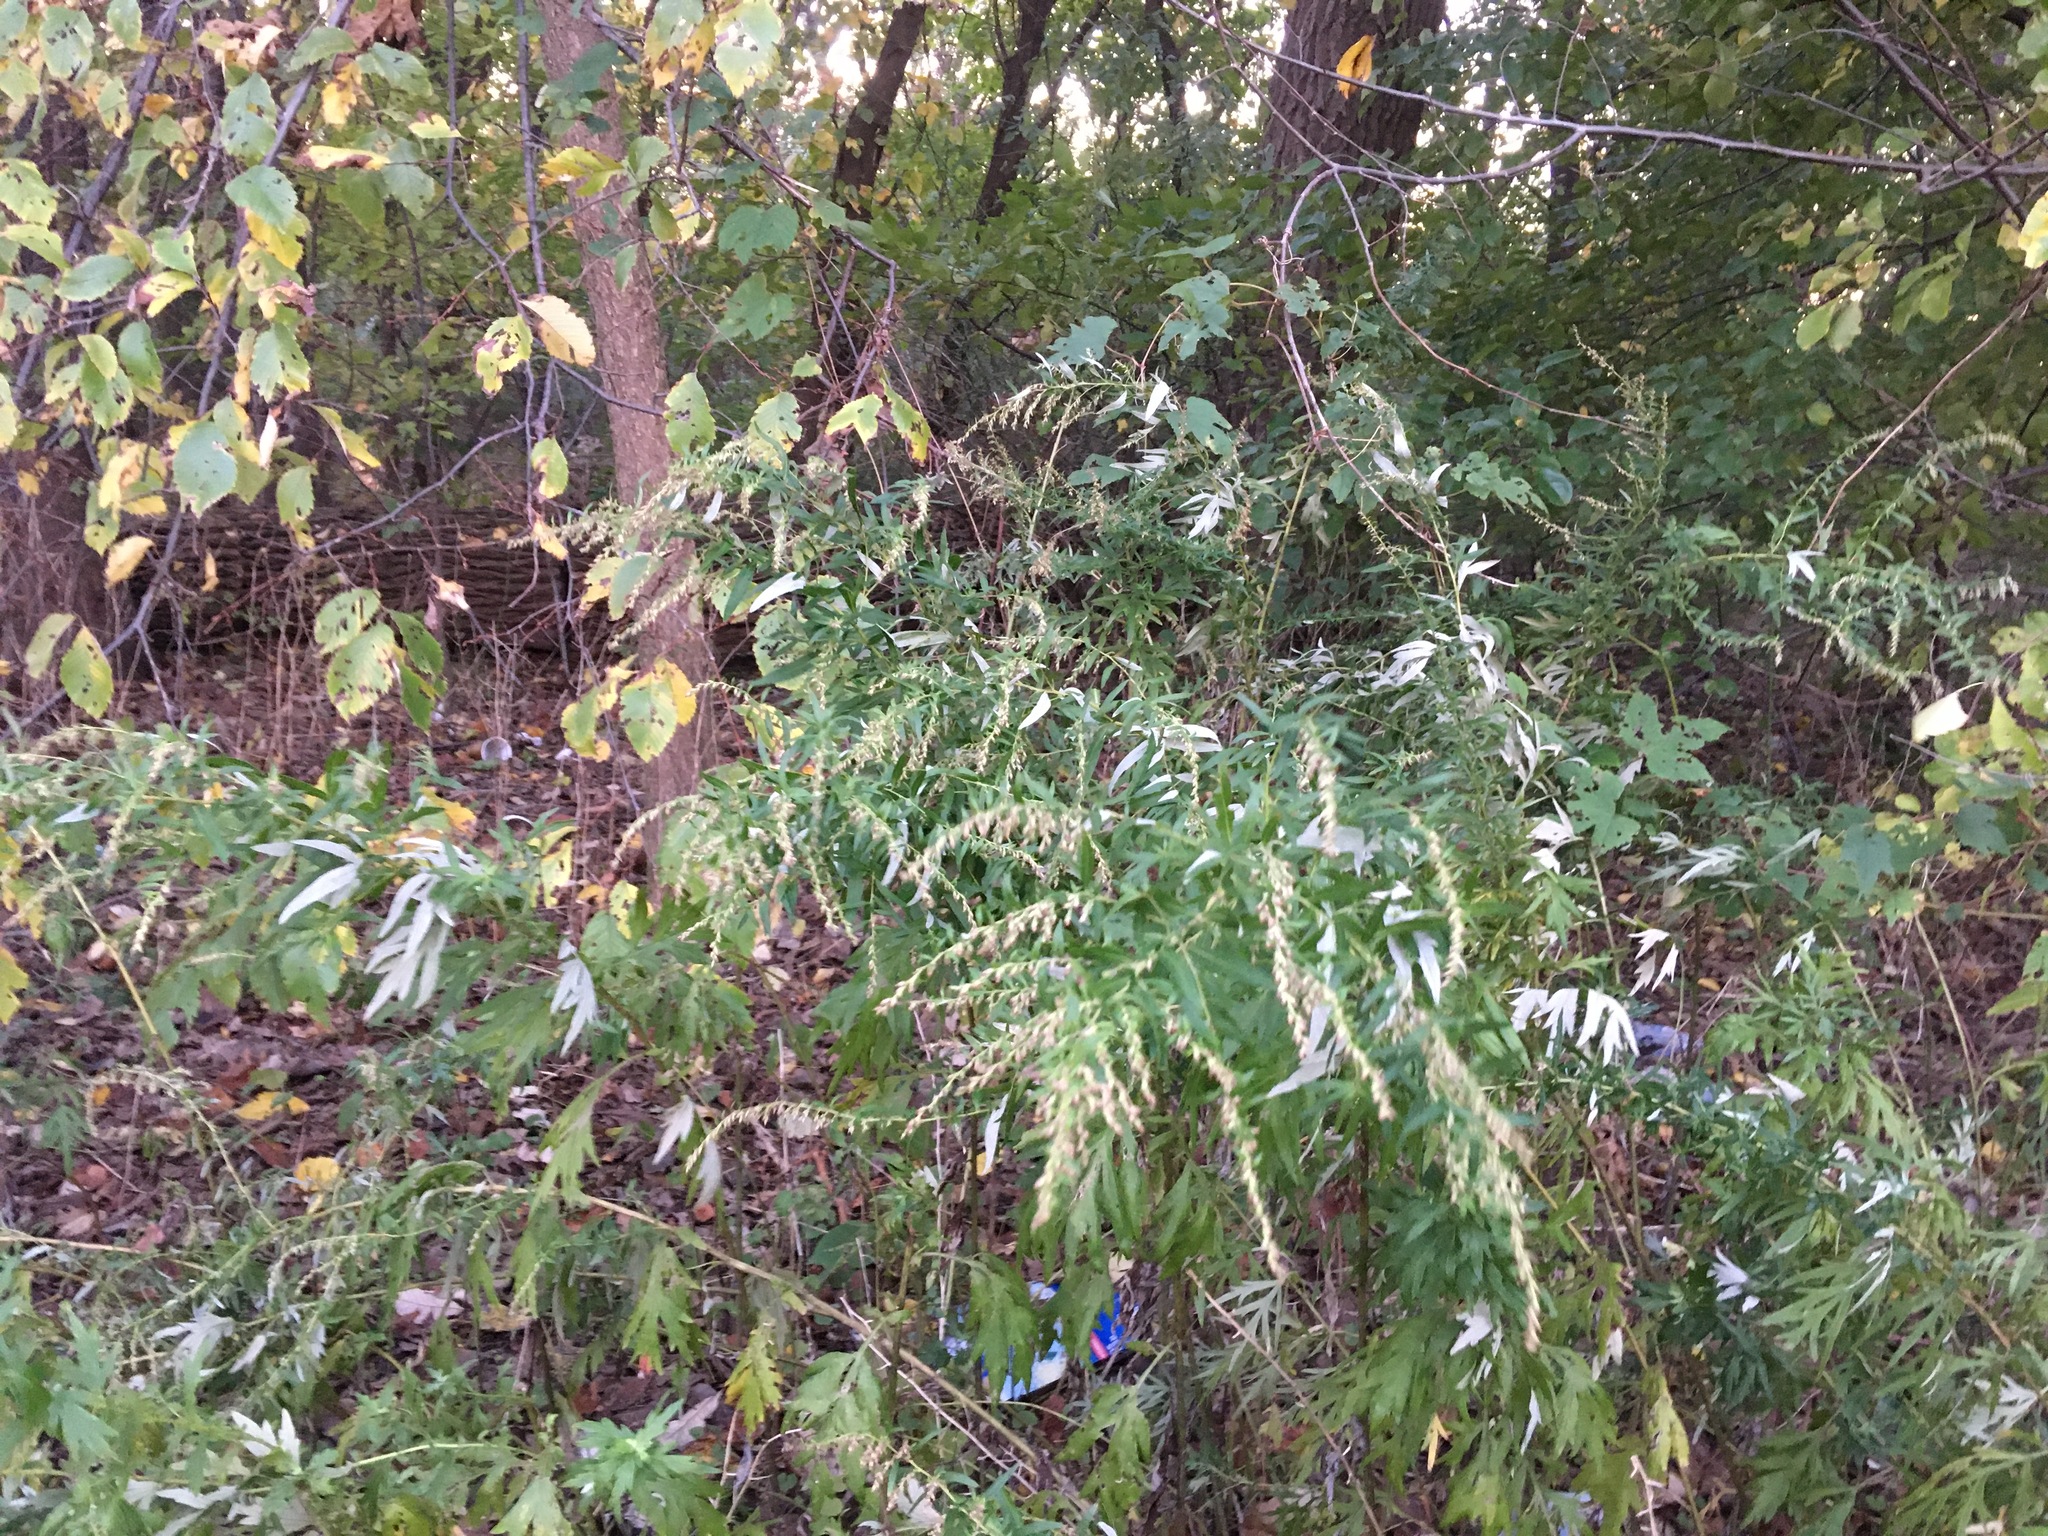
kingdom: Plantae
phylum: Tracheophyta
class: Magnoliopsida
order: Asterales
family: Asteraceae
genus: Artemisia
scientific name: Artemisia vulgaris
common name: Mugwort
